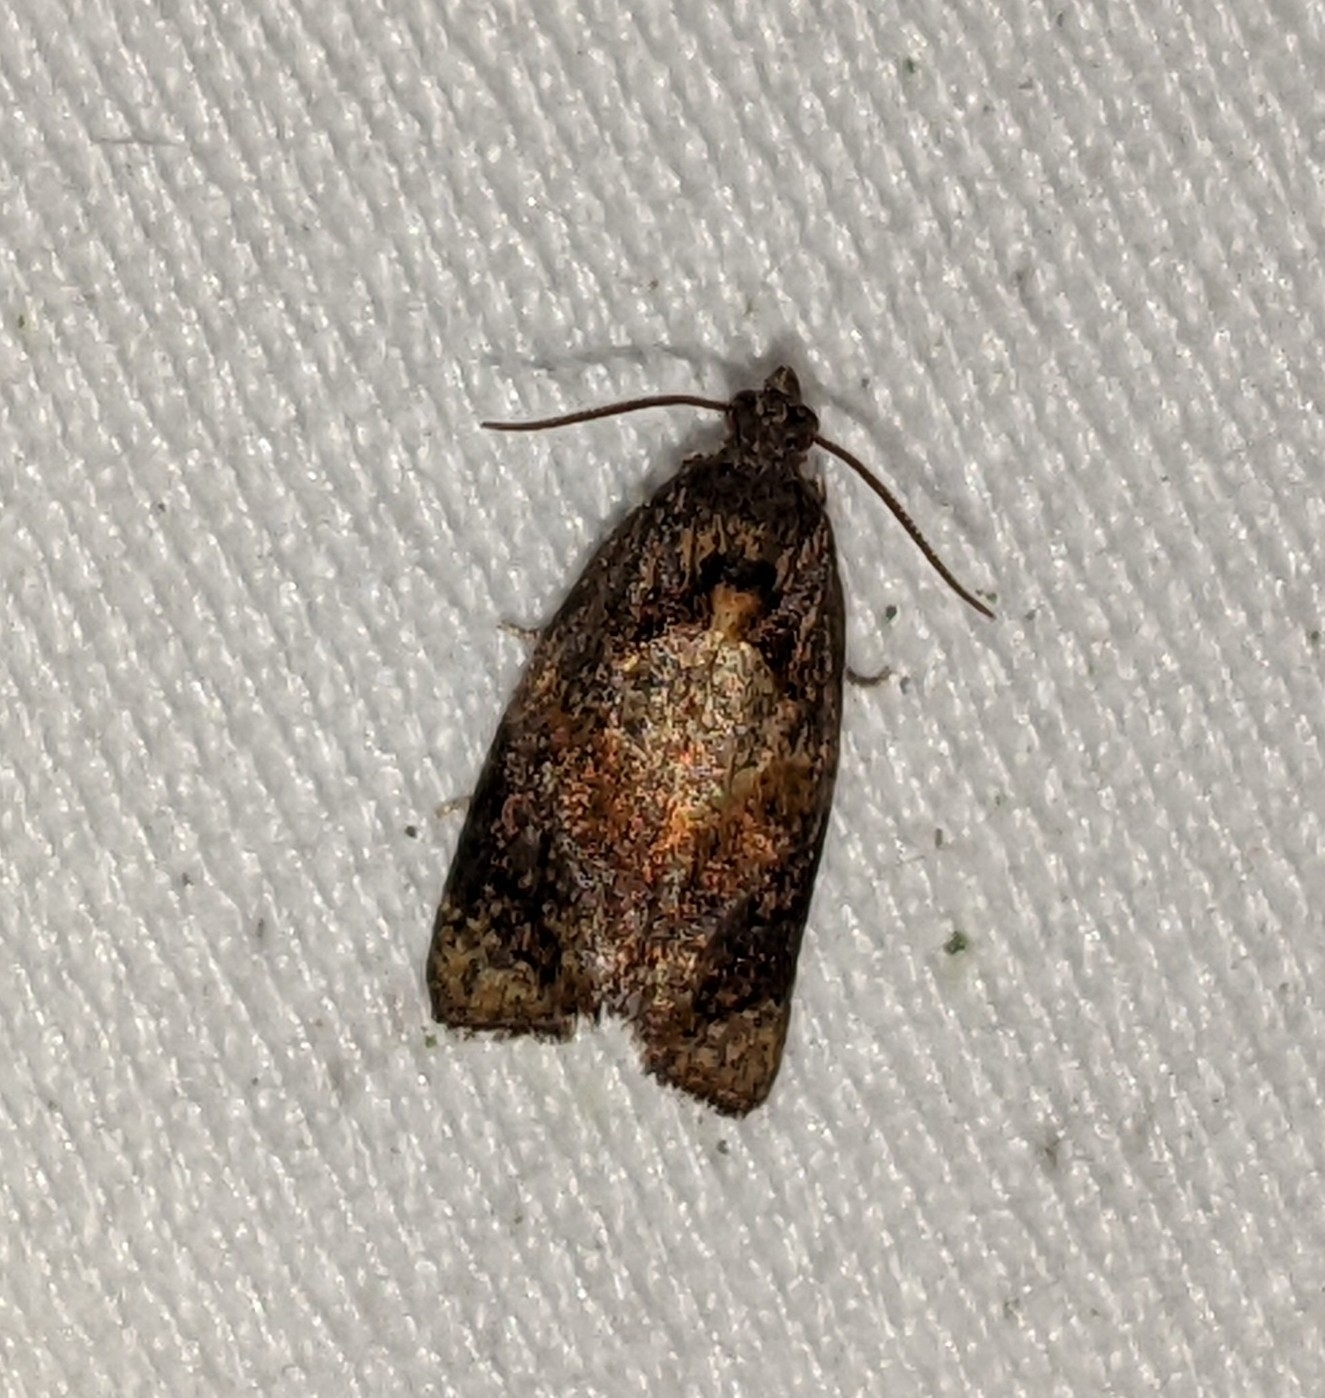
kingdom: Animalia
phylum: Arthropoda
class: Insecta
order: Lepidoptera
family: Tortricidae
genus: Ditula
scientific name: Ditula angustiorana
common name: Red-barred tortrix
